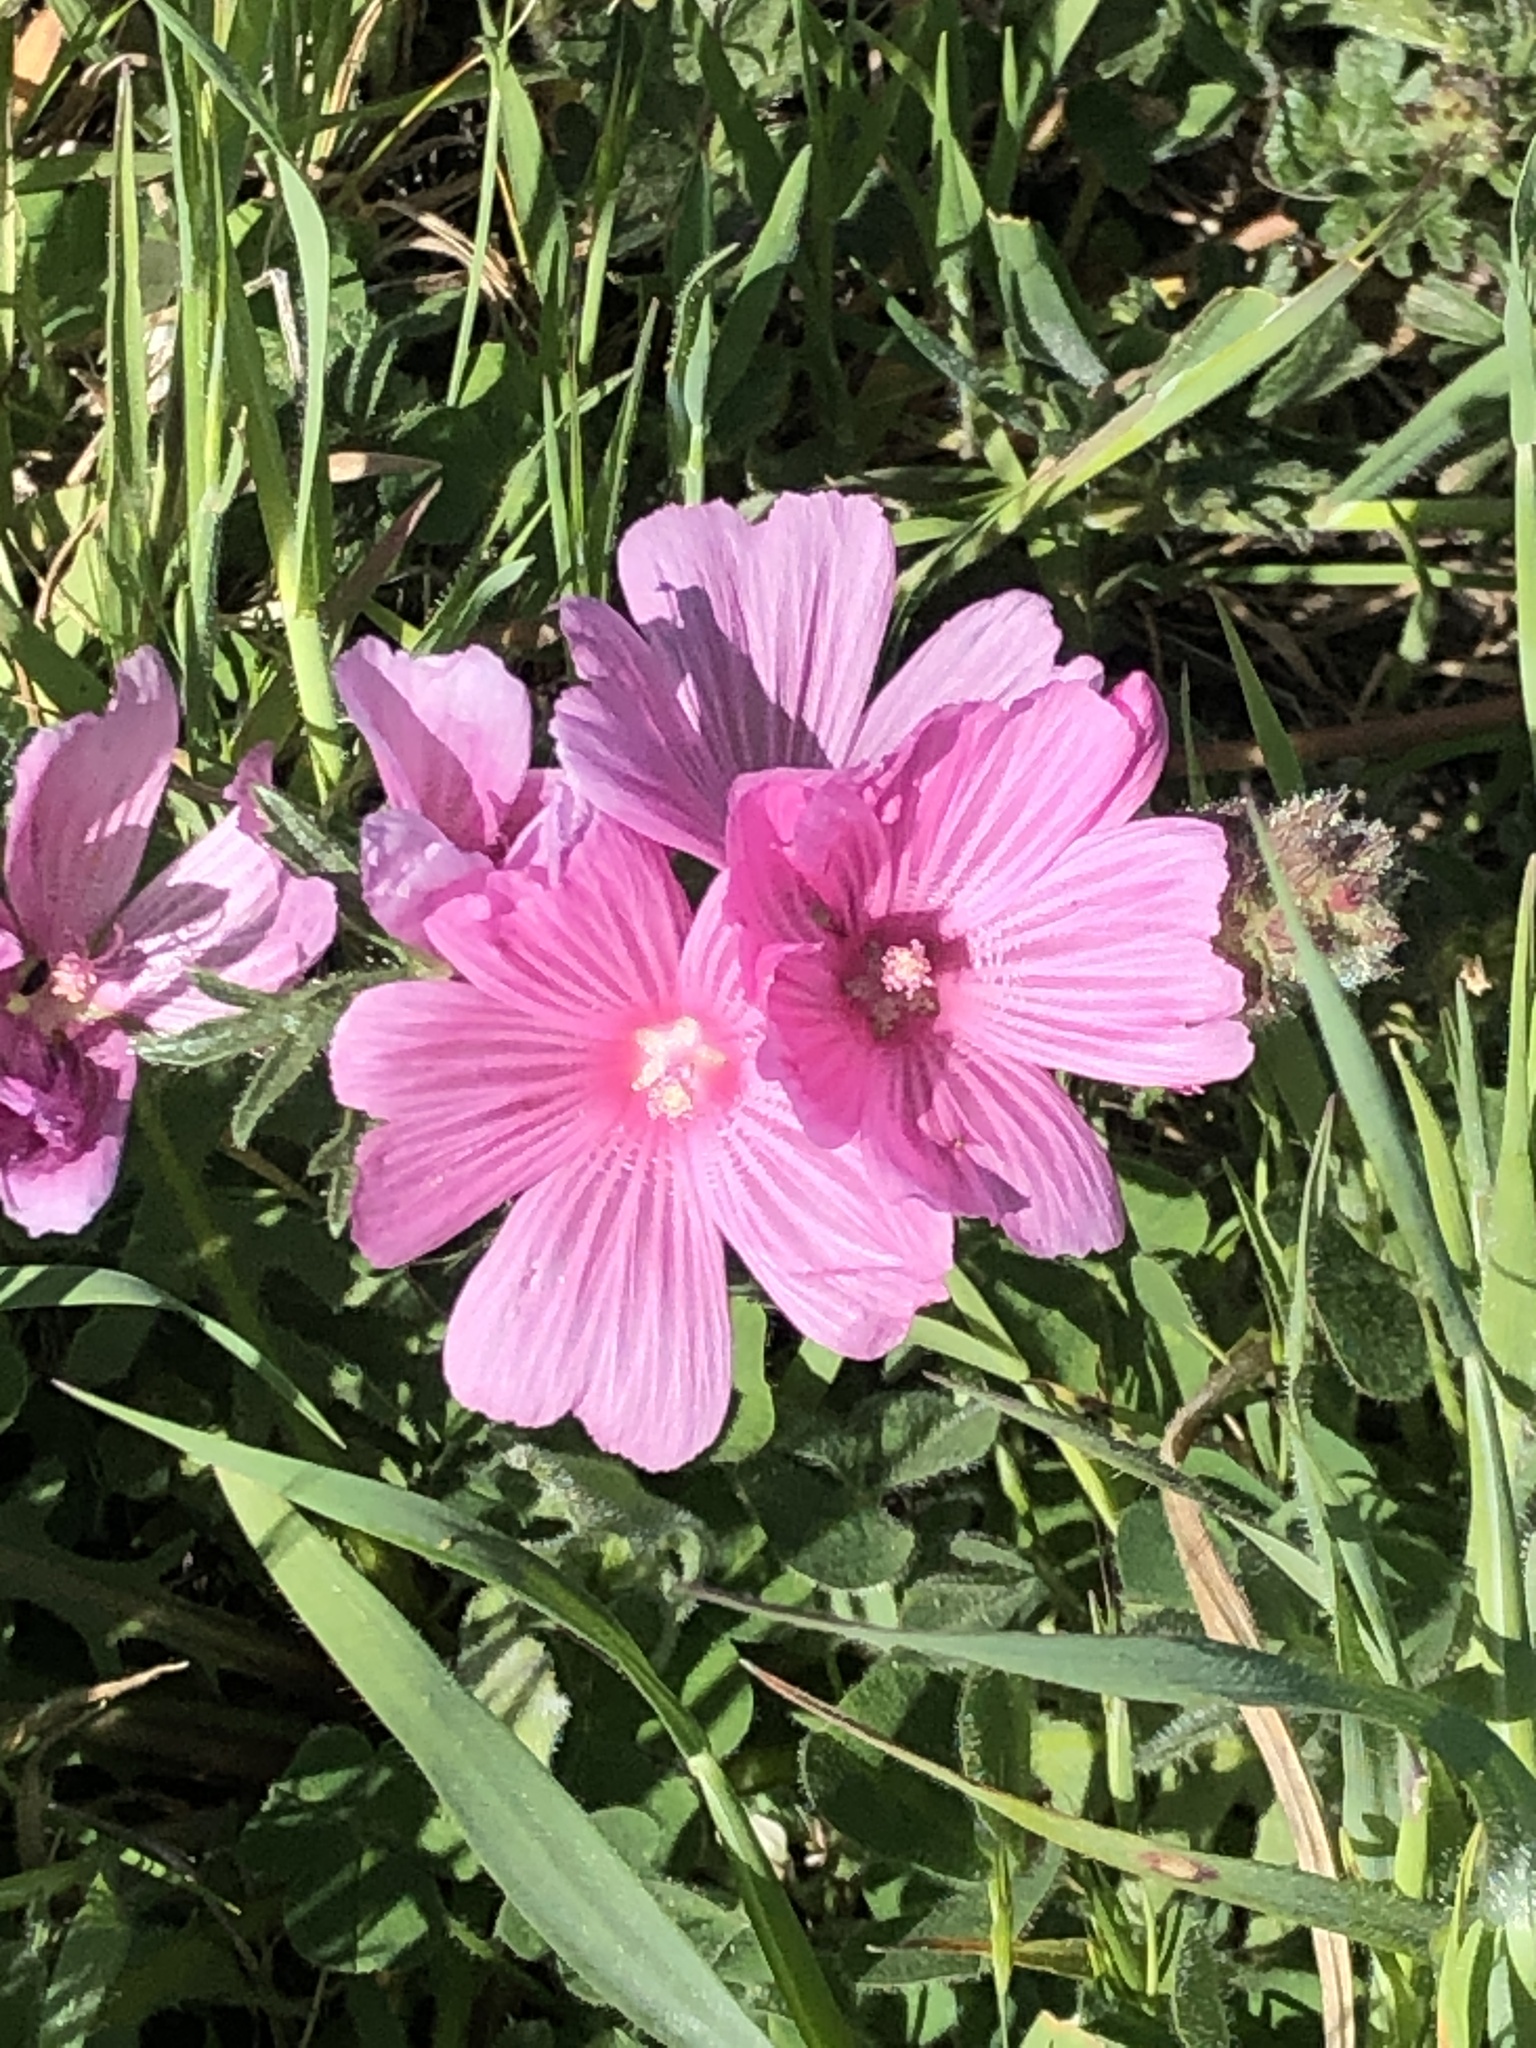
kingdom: Plantae
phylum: Tracheophyta
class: Magnoliopsida
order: Malvales
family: Malvaceae
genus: Sidalcea
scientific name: Sidalcea malviflora
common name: Greek mallow
